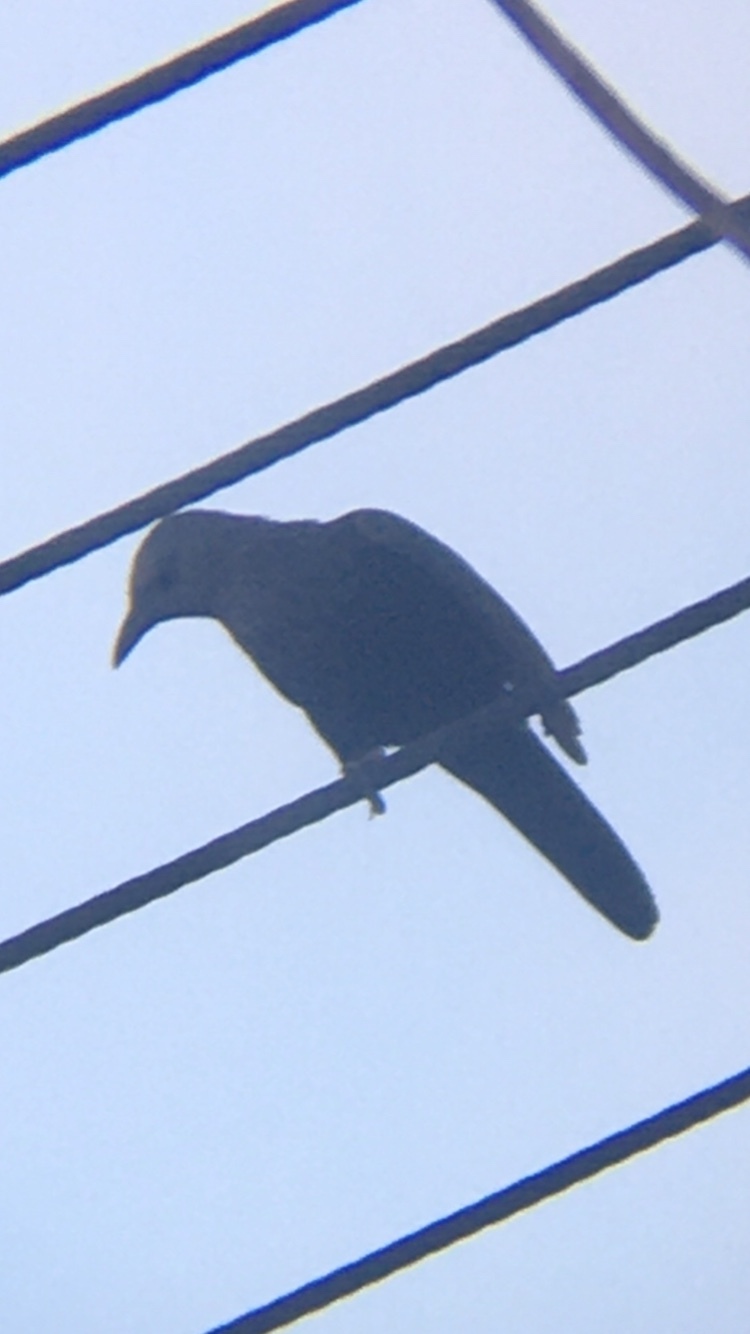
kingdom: Animalia
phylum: Chordata
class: Aves
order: Passeriformes
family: Sturnidae
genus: Onychognathus
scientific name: Onychognathus morio
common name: Red-winged starling
